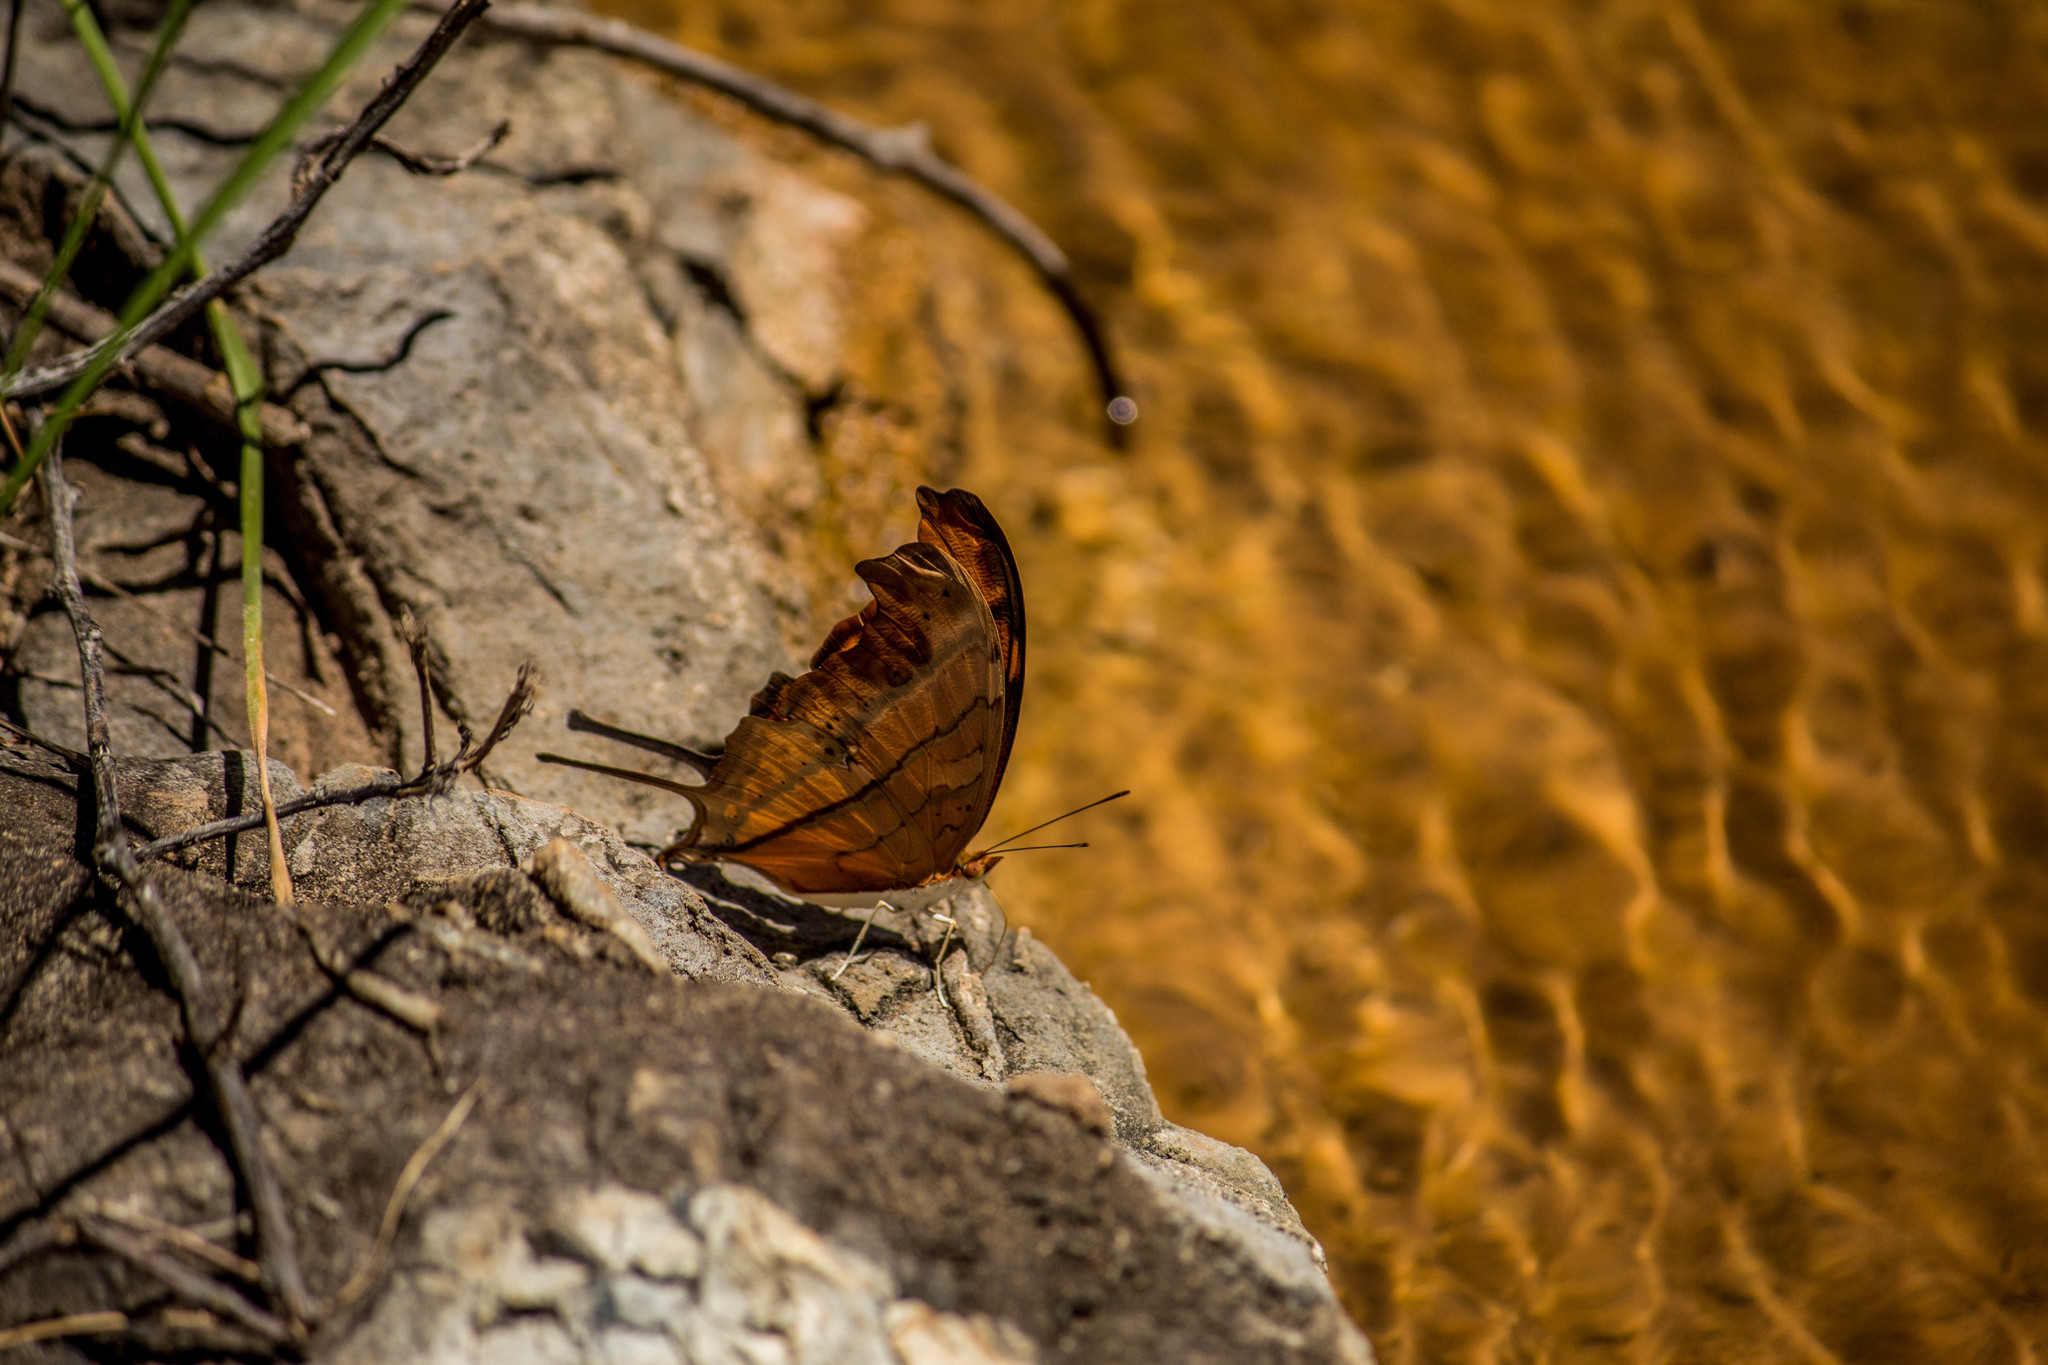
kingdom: Animalia
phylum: Arthropoda
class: Insecta
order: Lepidoptera
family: Nymphalidae
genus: Marpesia
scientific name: Marpesia petreus
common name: Red dagger wing
